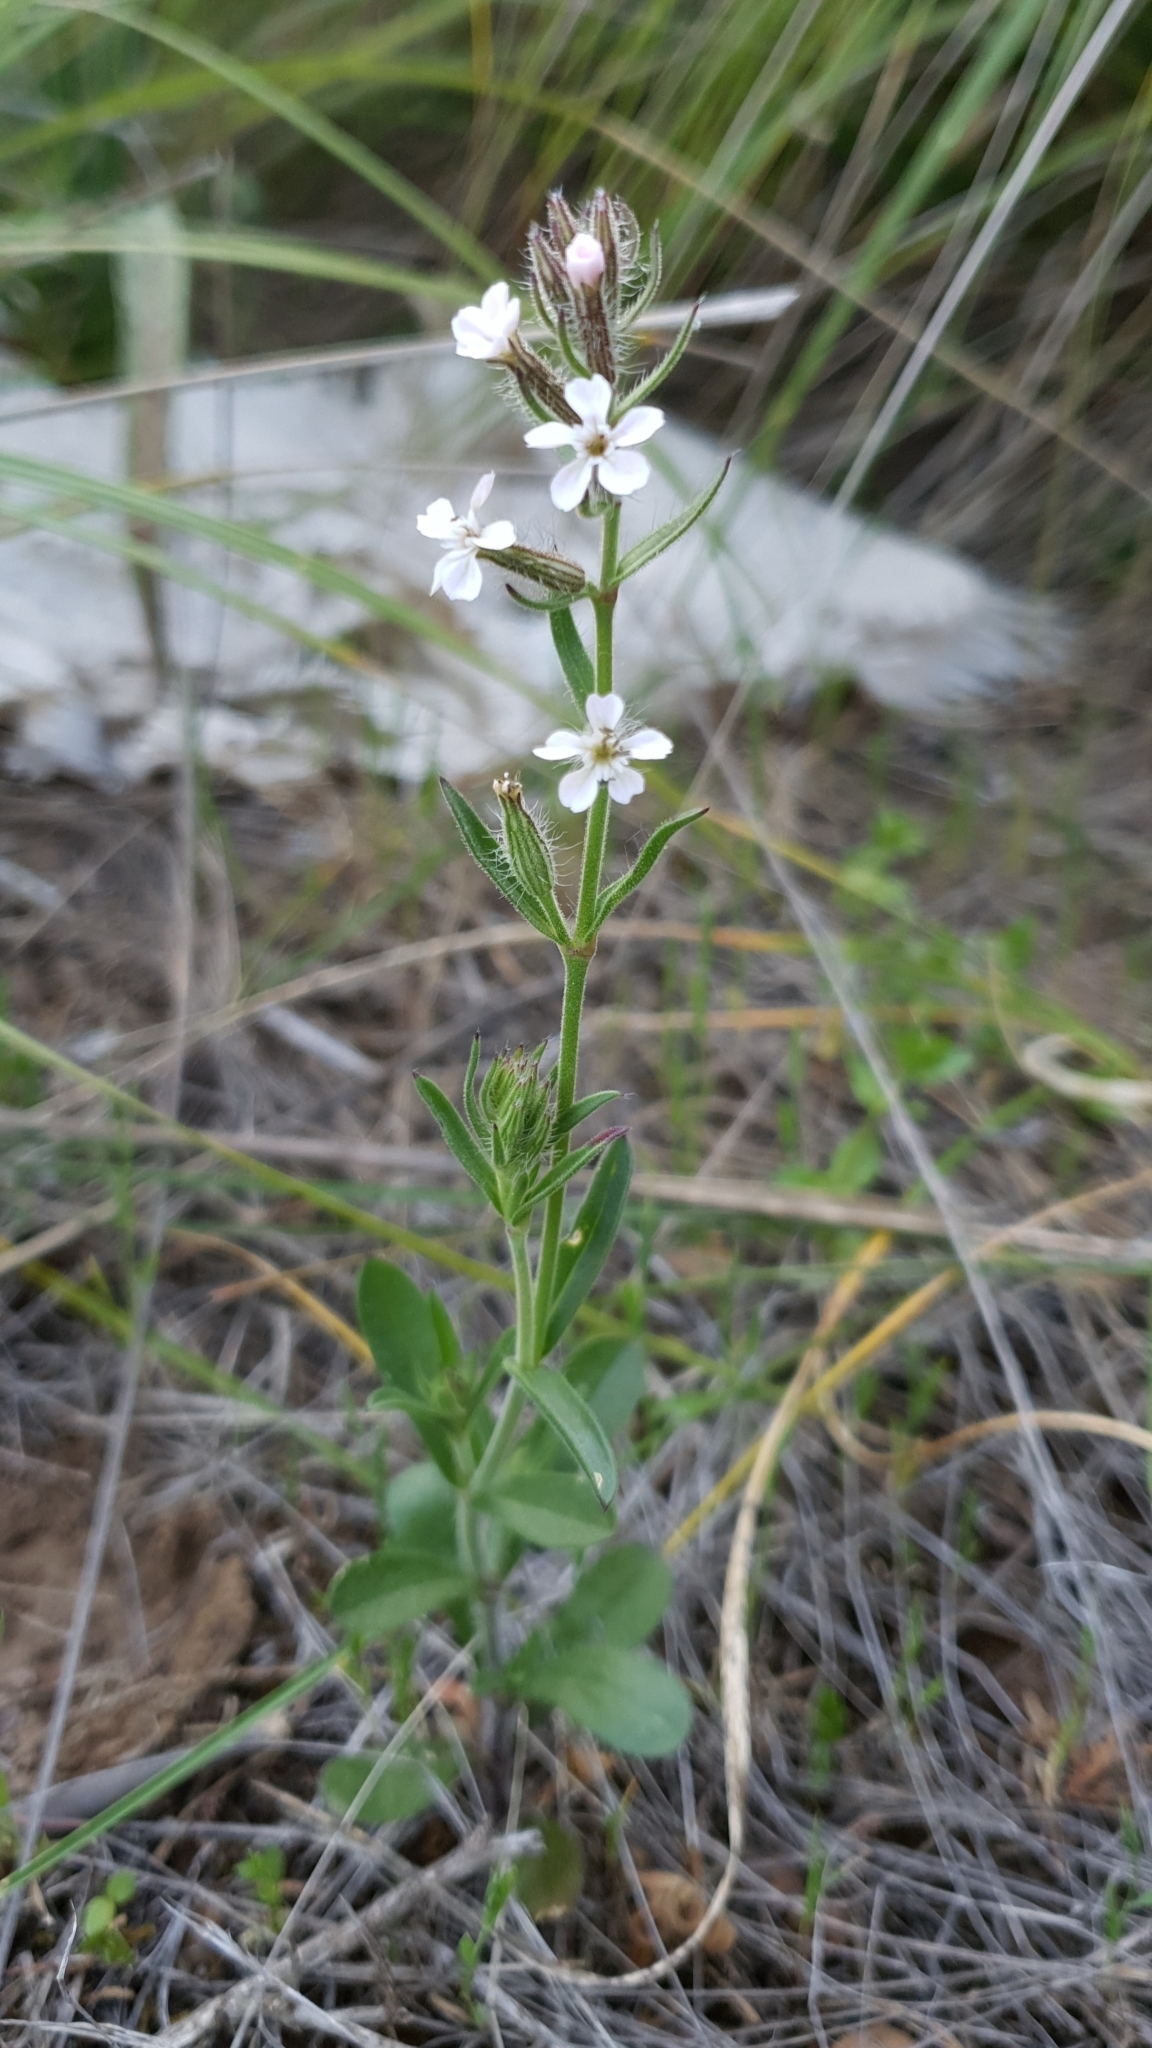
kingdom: Plantae
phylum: Tracheophyta
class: Magnoliopsida
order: Caryophyllales
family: Caryophyllaceae
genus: Silene
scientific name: Silene gallica
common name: Small-flowered catchfly
